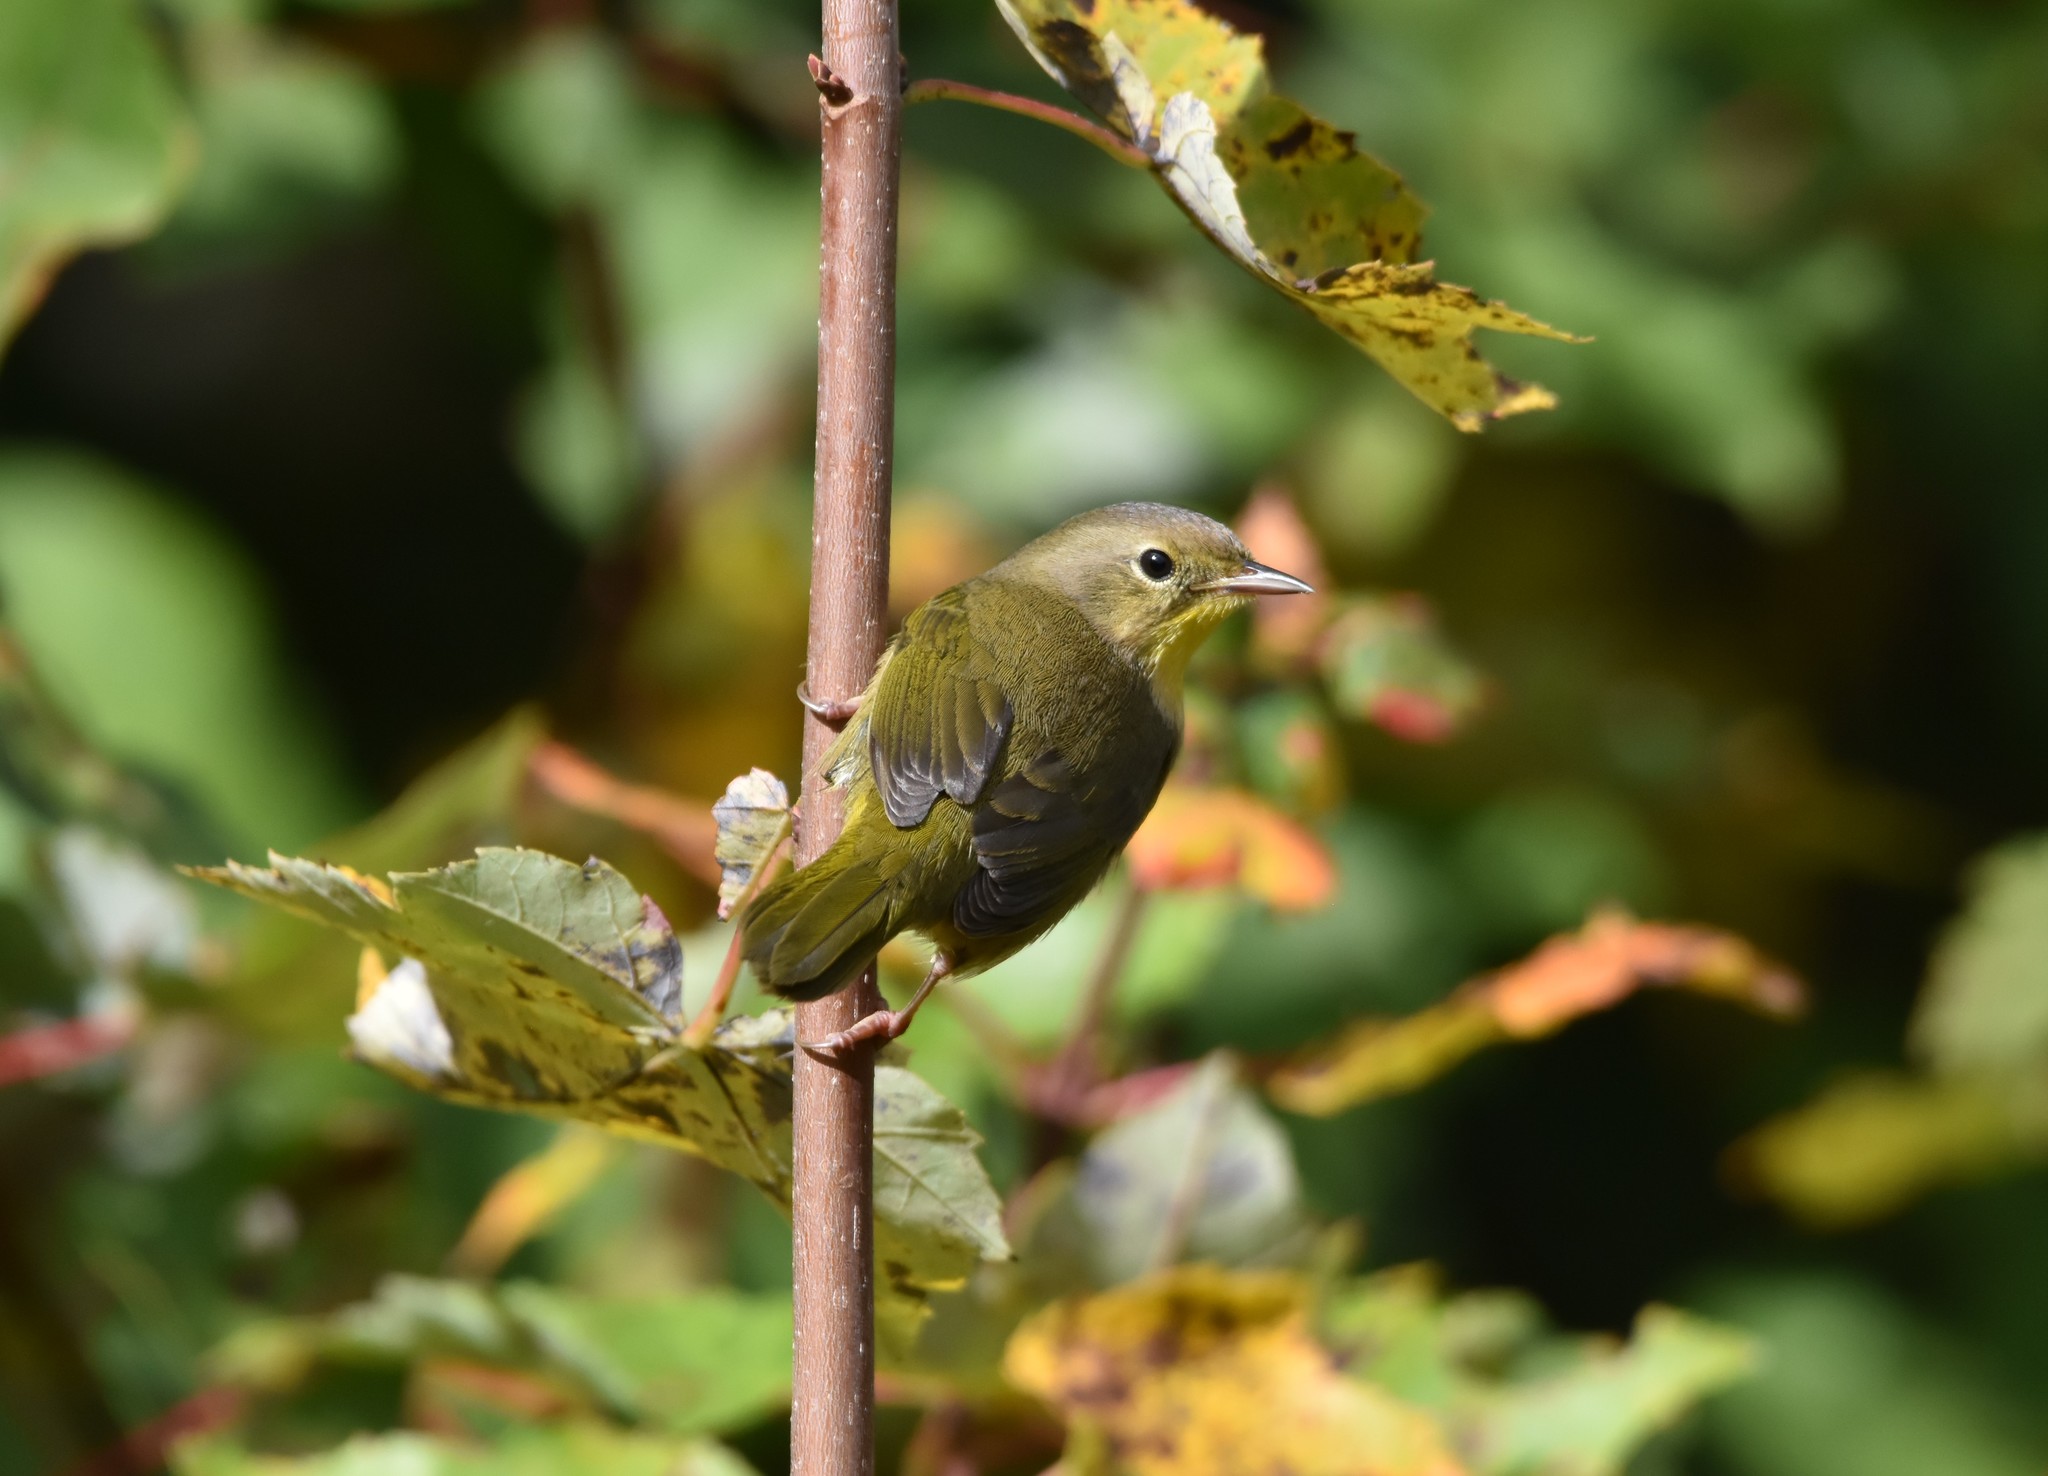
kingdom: Animalia
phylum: Chordata
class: Aves
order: Passeriformes
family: Parulidae
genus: Geothlypis
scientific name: Geothlypis trichas
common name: Common yellowthroat
